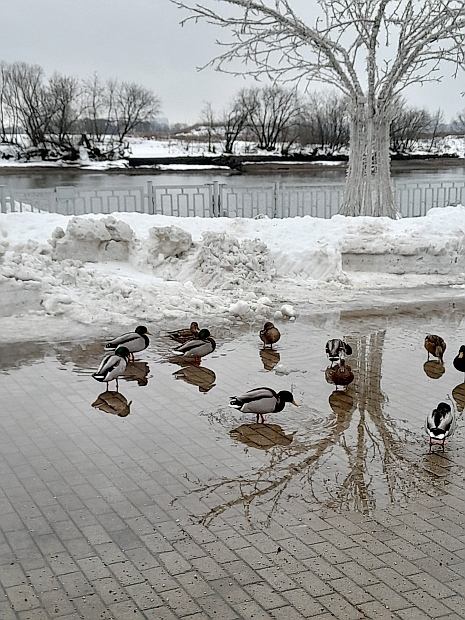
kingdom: Animalia
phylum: Chordata
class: Aves
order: Anseriformes
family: Anatidae
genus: Anas
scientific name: Anas platyrhynchos
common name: Mallard
